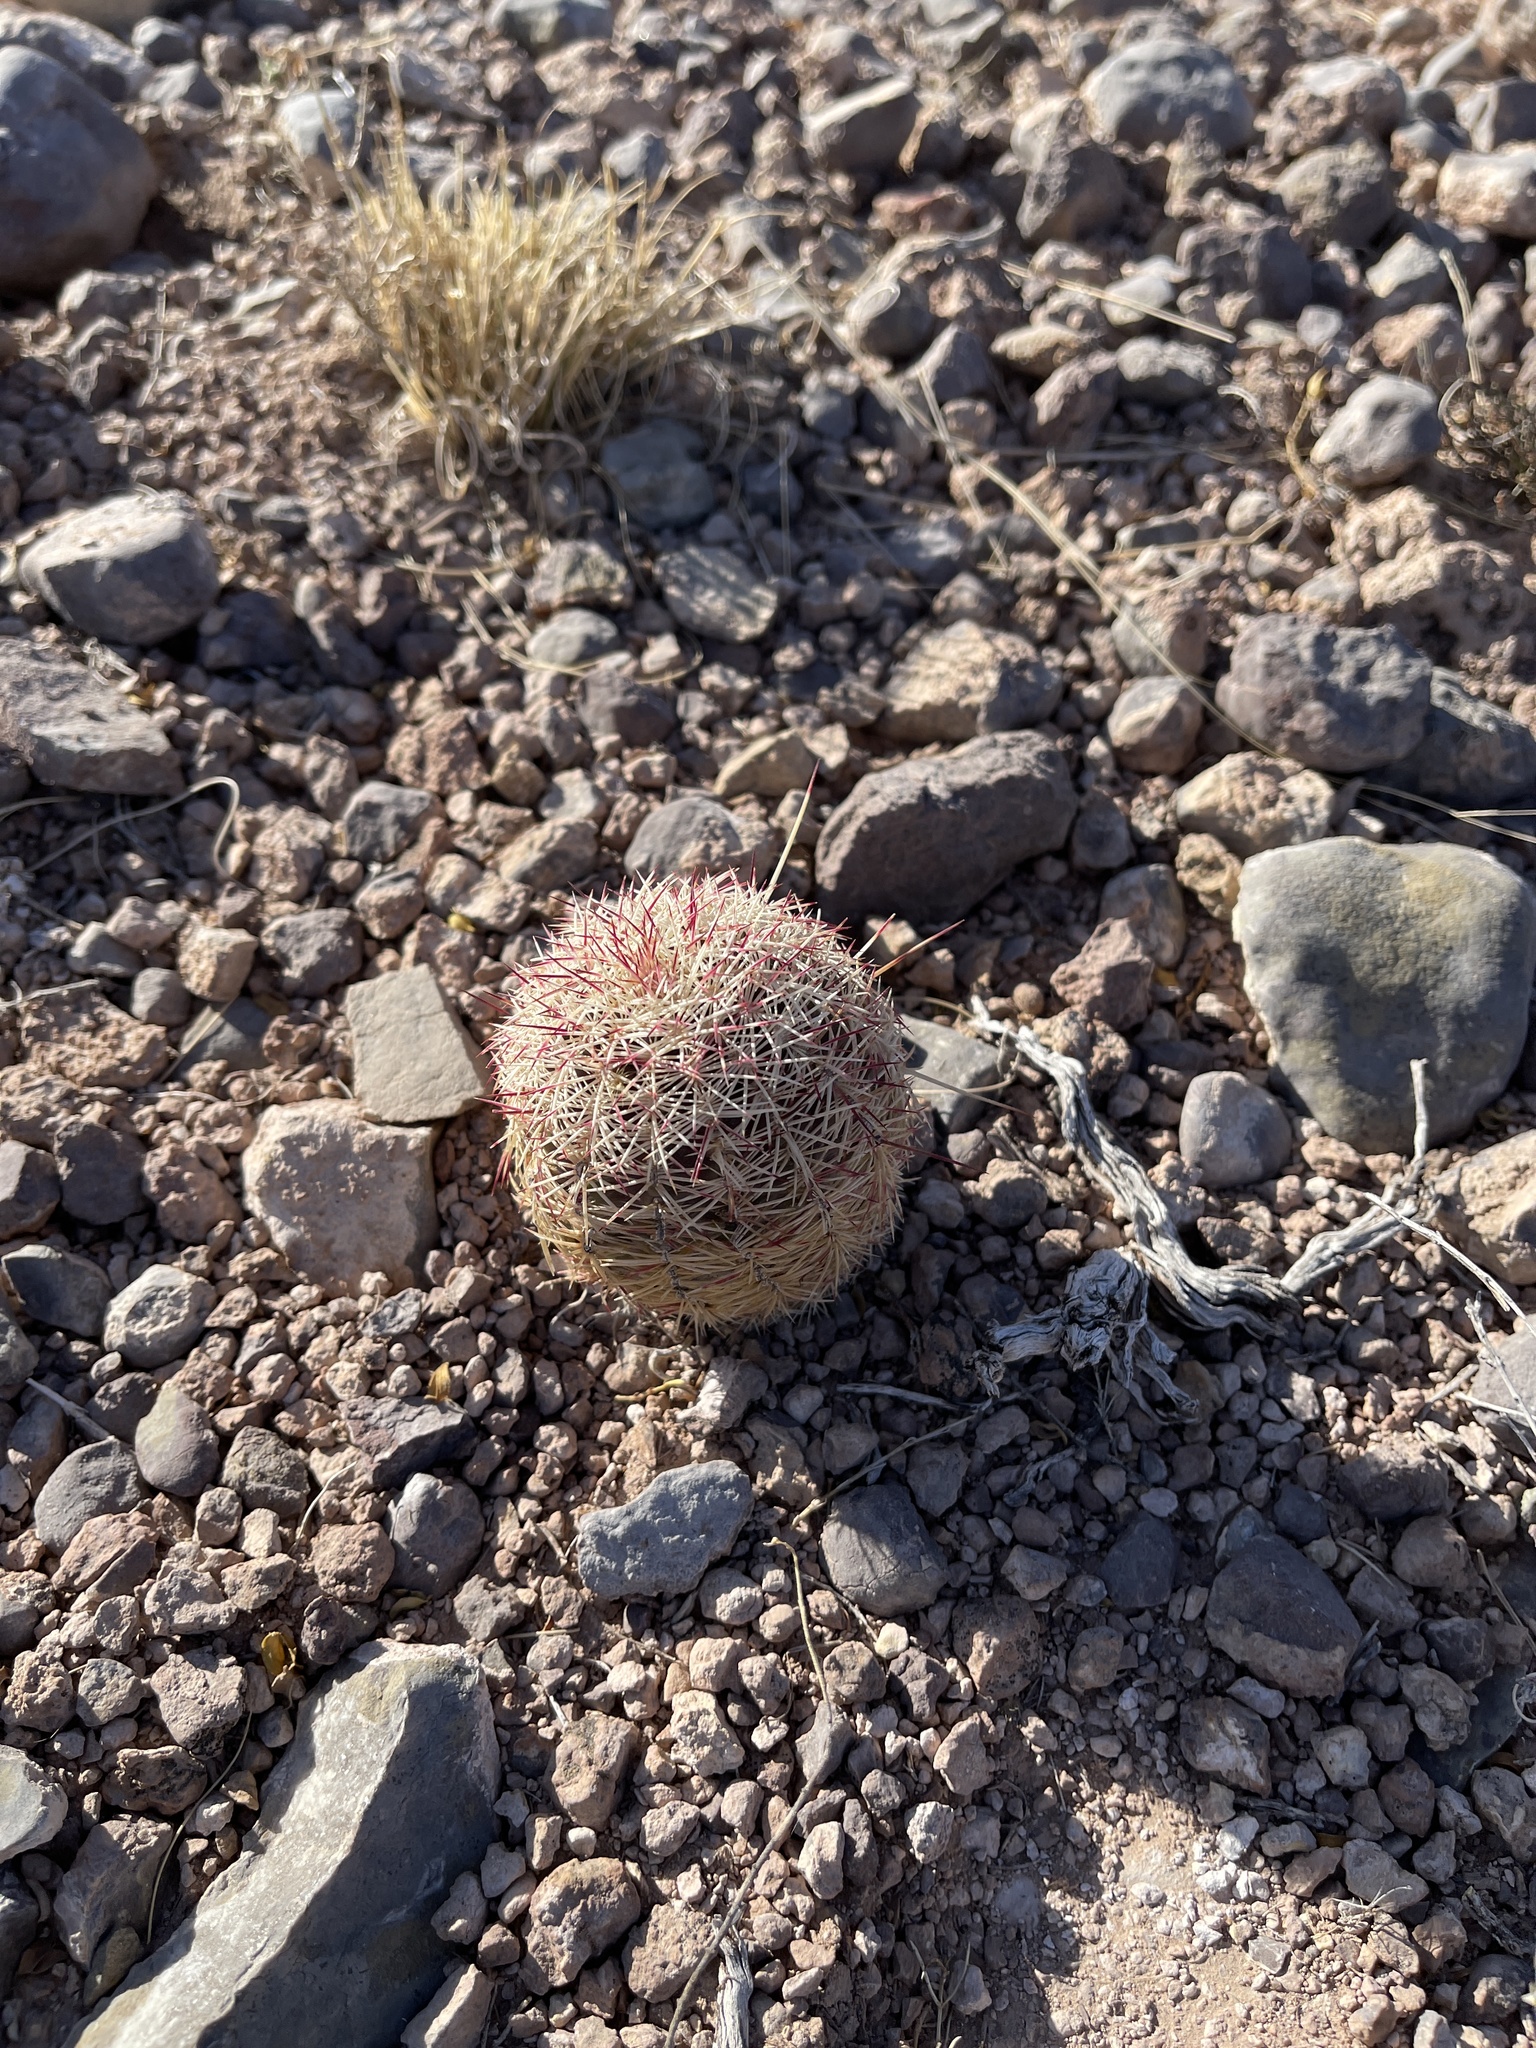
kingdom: Plantae
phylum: Tracheophyta
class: Magnoliopsida
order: Caryophyllales
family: Cactaceae
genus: Echinocereus
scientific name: Echinocereus viridiflorus
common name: Nylon hedgehog cactus
